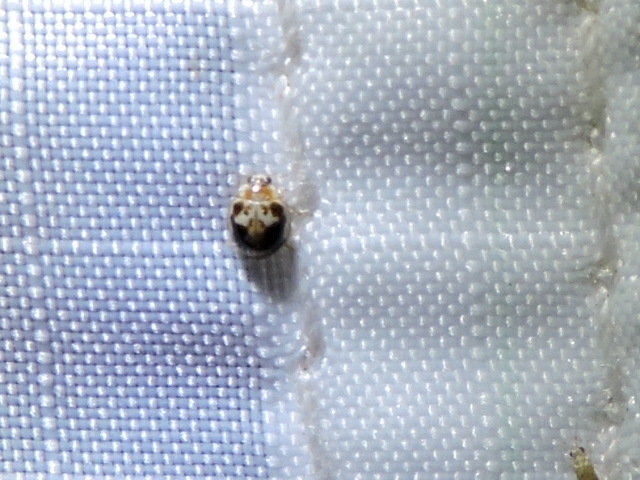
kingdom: Animalia
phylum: Arthropoda
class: Insecta
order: Coleoptera
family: Coccinellidae
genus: Psyllobora
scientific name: Psyllobora renifer
